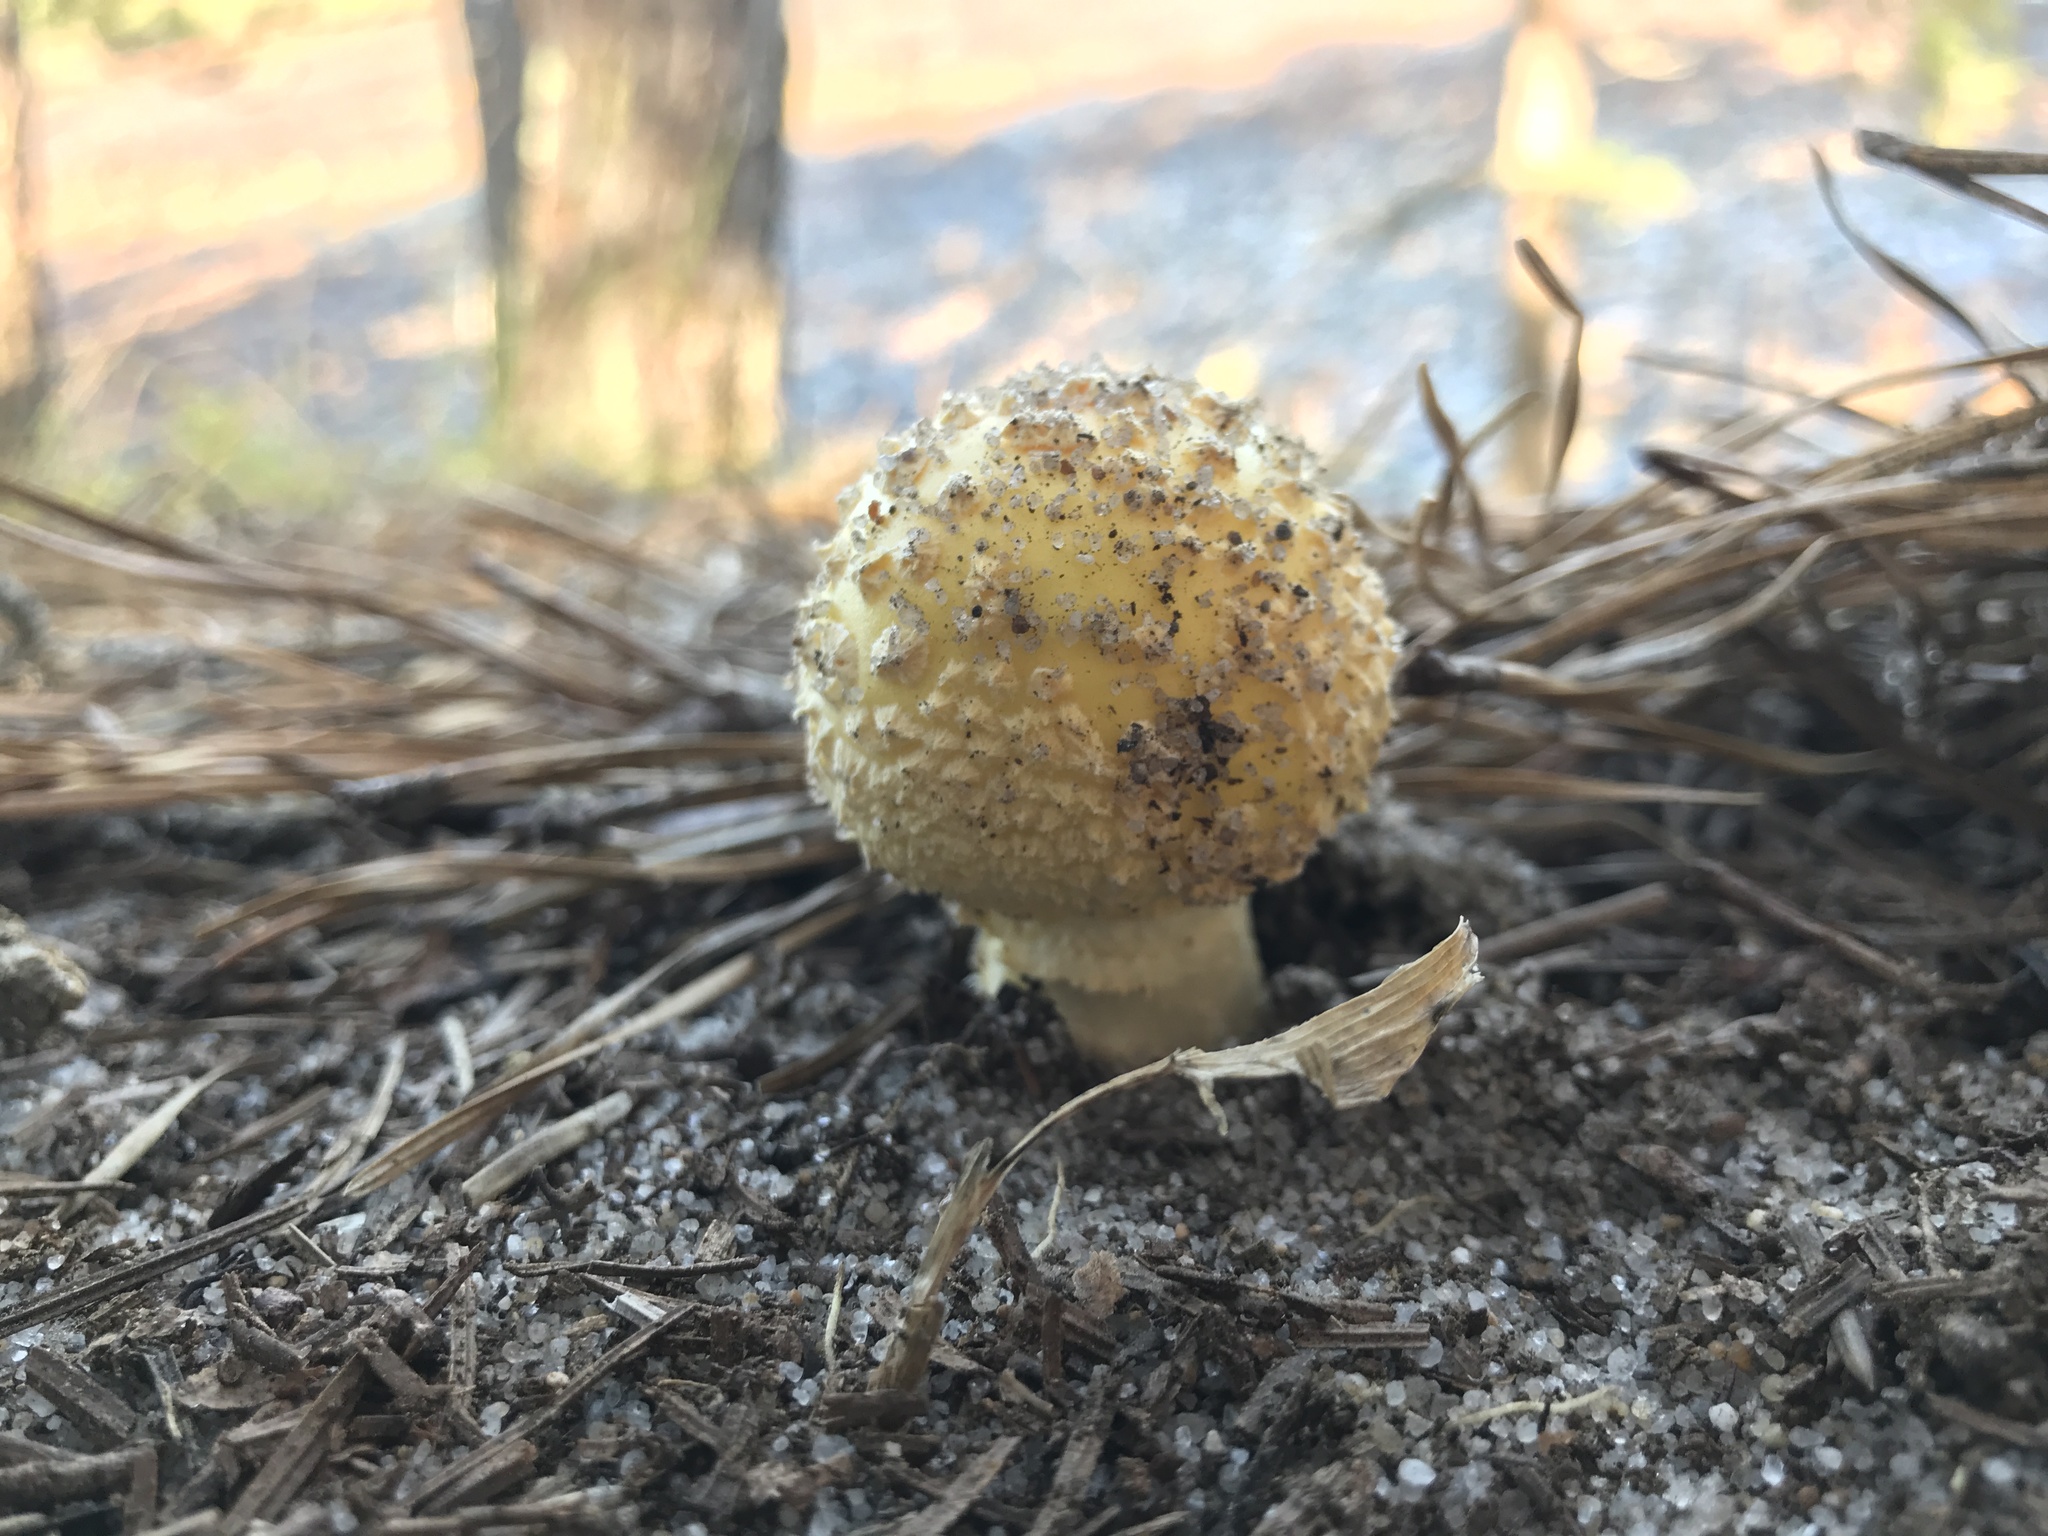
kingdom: Fungi
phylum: Basidiomycota
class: Agaricomycetes
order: Agaricales
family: Amanitaceae
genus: Amanita
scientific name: Amanita muscaria
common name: Fly agaric
